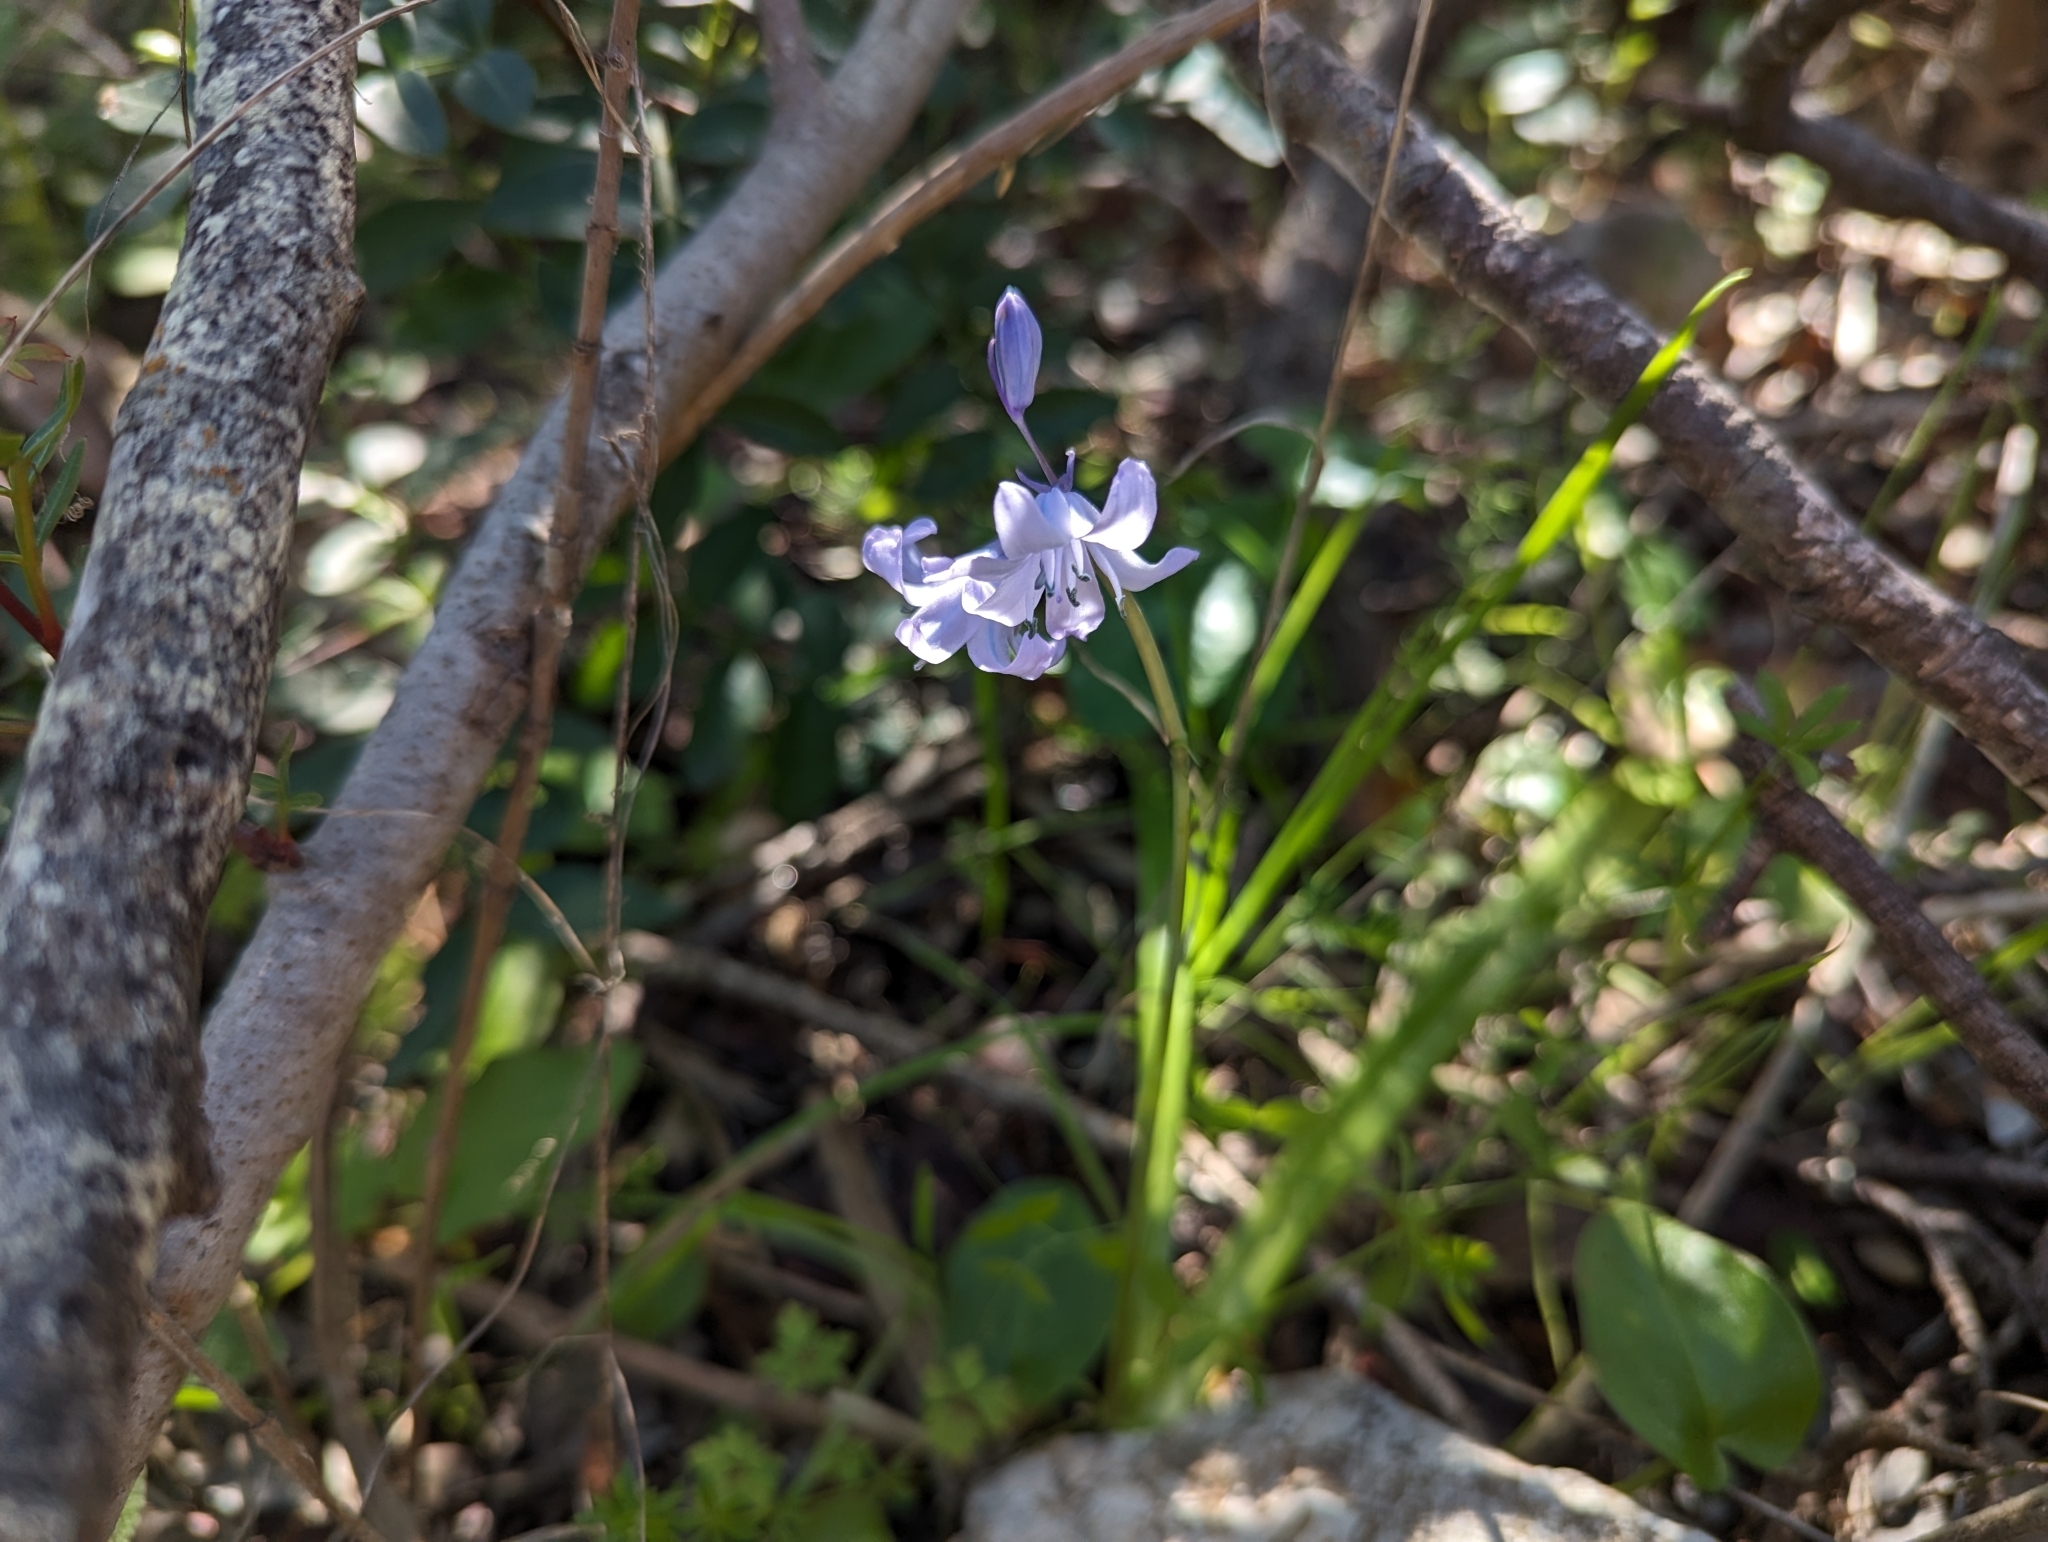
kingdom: Plantae
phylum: Tracheophyta
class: Liliopsida
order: Asparagales
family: Asparagaceae
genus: Hyacinthoides
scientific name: Hyacinthoides hispanica
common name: Spanish bluebell
